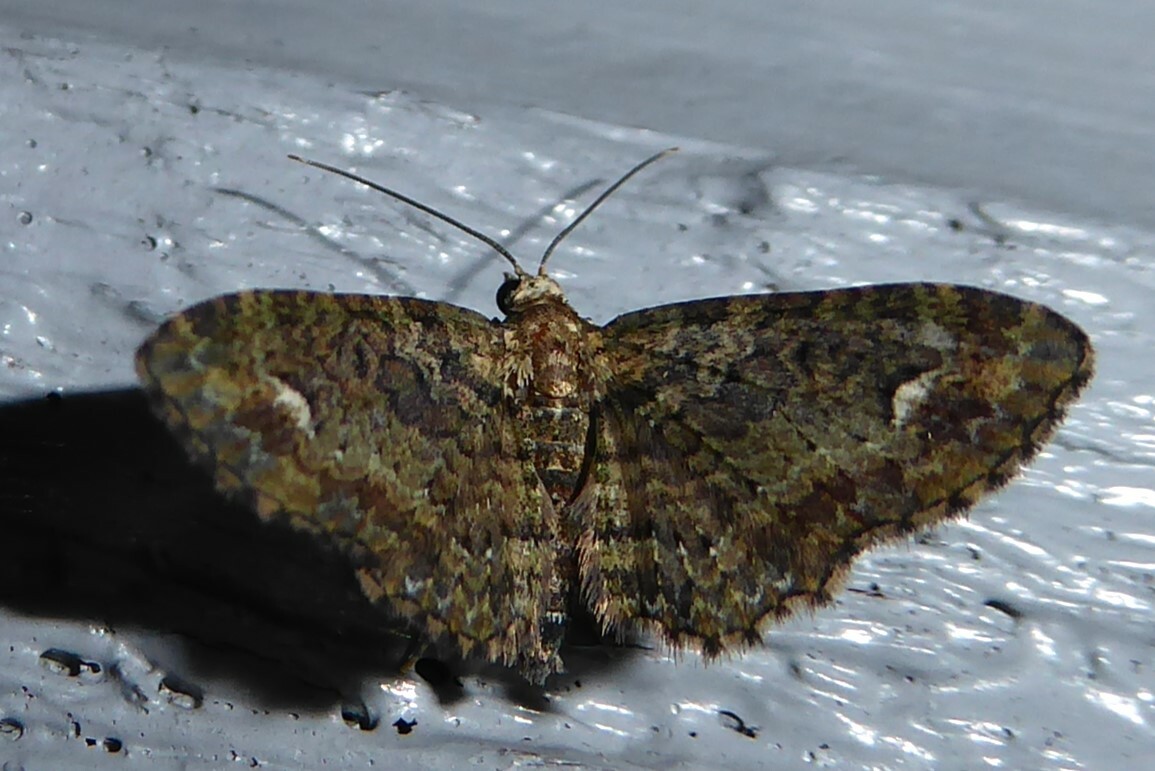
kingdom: Animalia
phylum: Arthropoda
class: Insecta
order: Lepidoptera
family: Geometridae
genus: Pasiphilodes
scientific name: Pasiphilodes testulata
